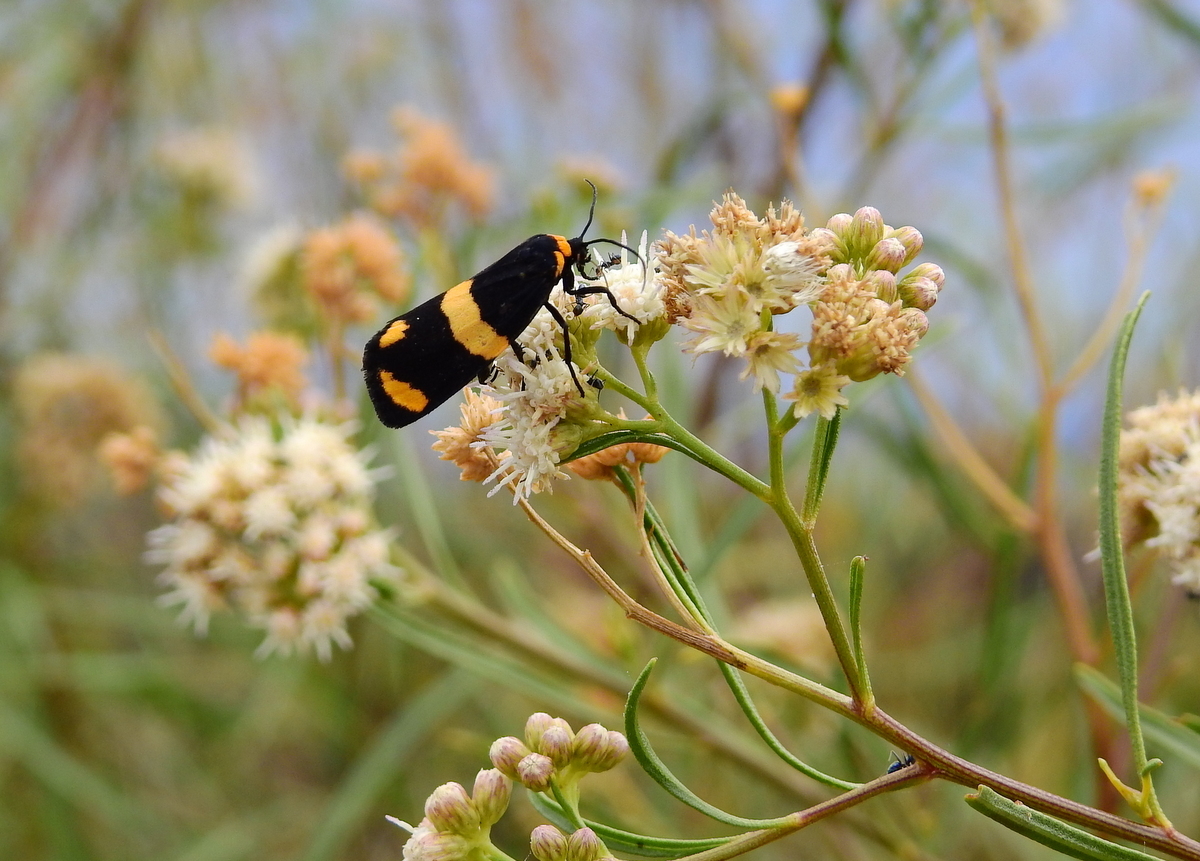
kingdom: Animalia
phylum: Arthropoda
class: Insecta
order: Lepidoptera
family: Erebidae
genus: Eudesmia
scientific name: Eudesmia
